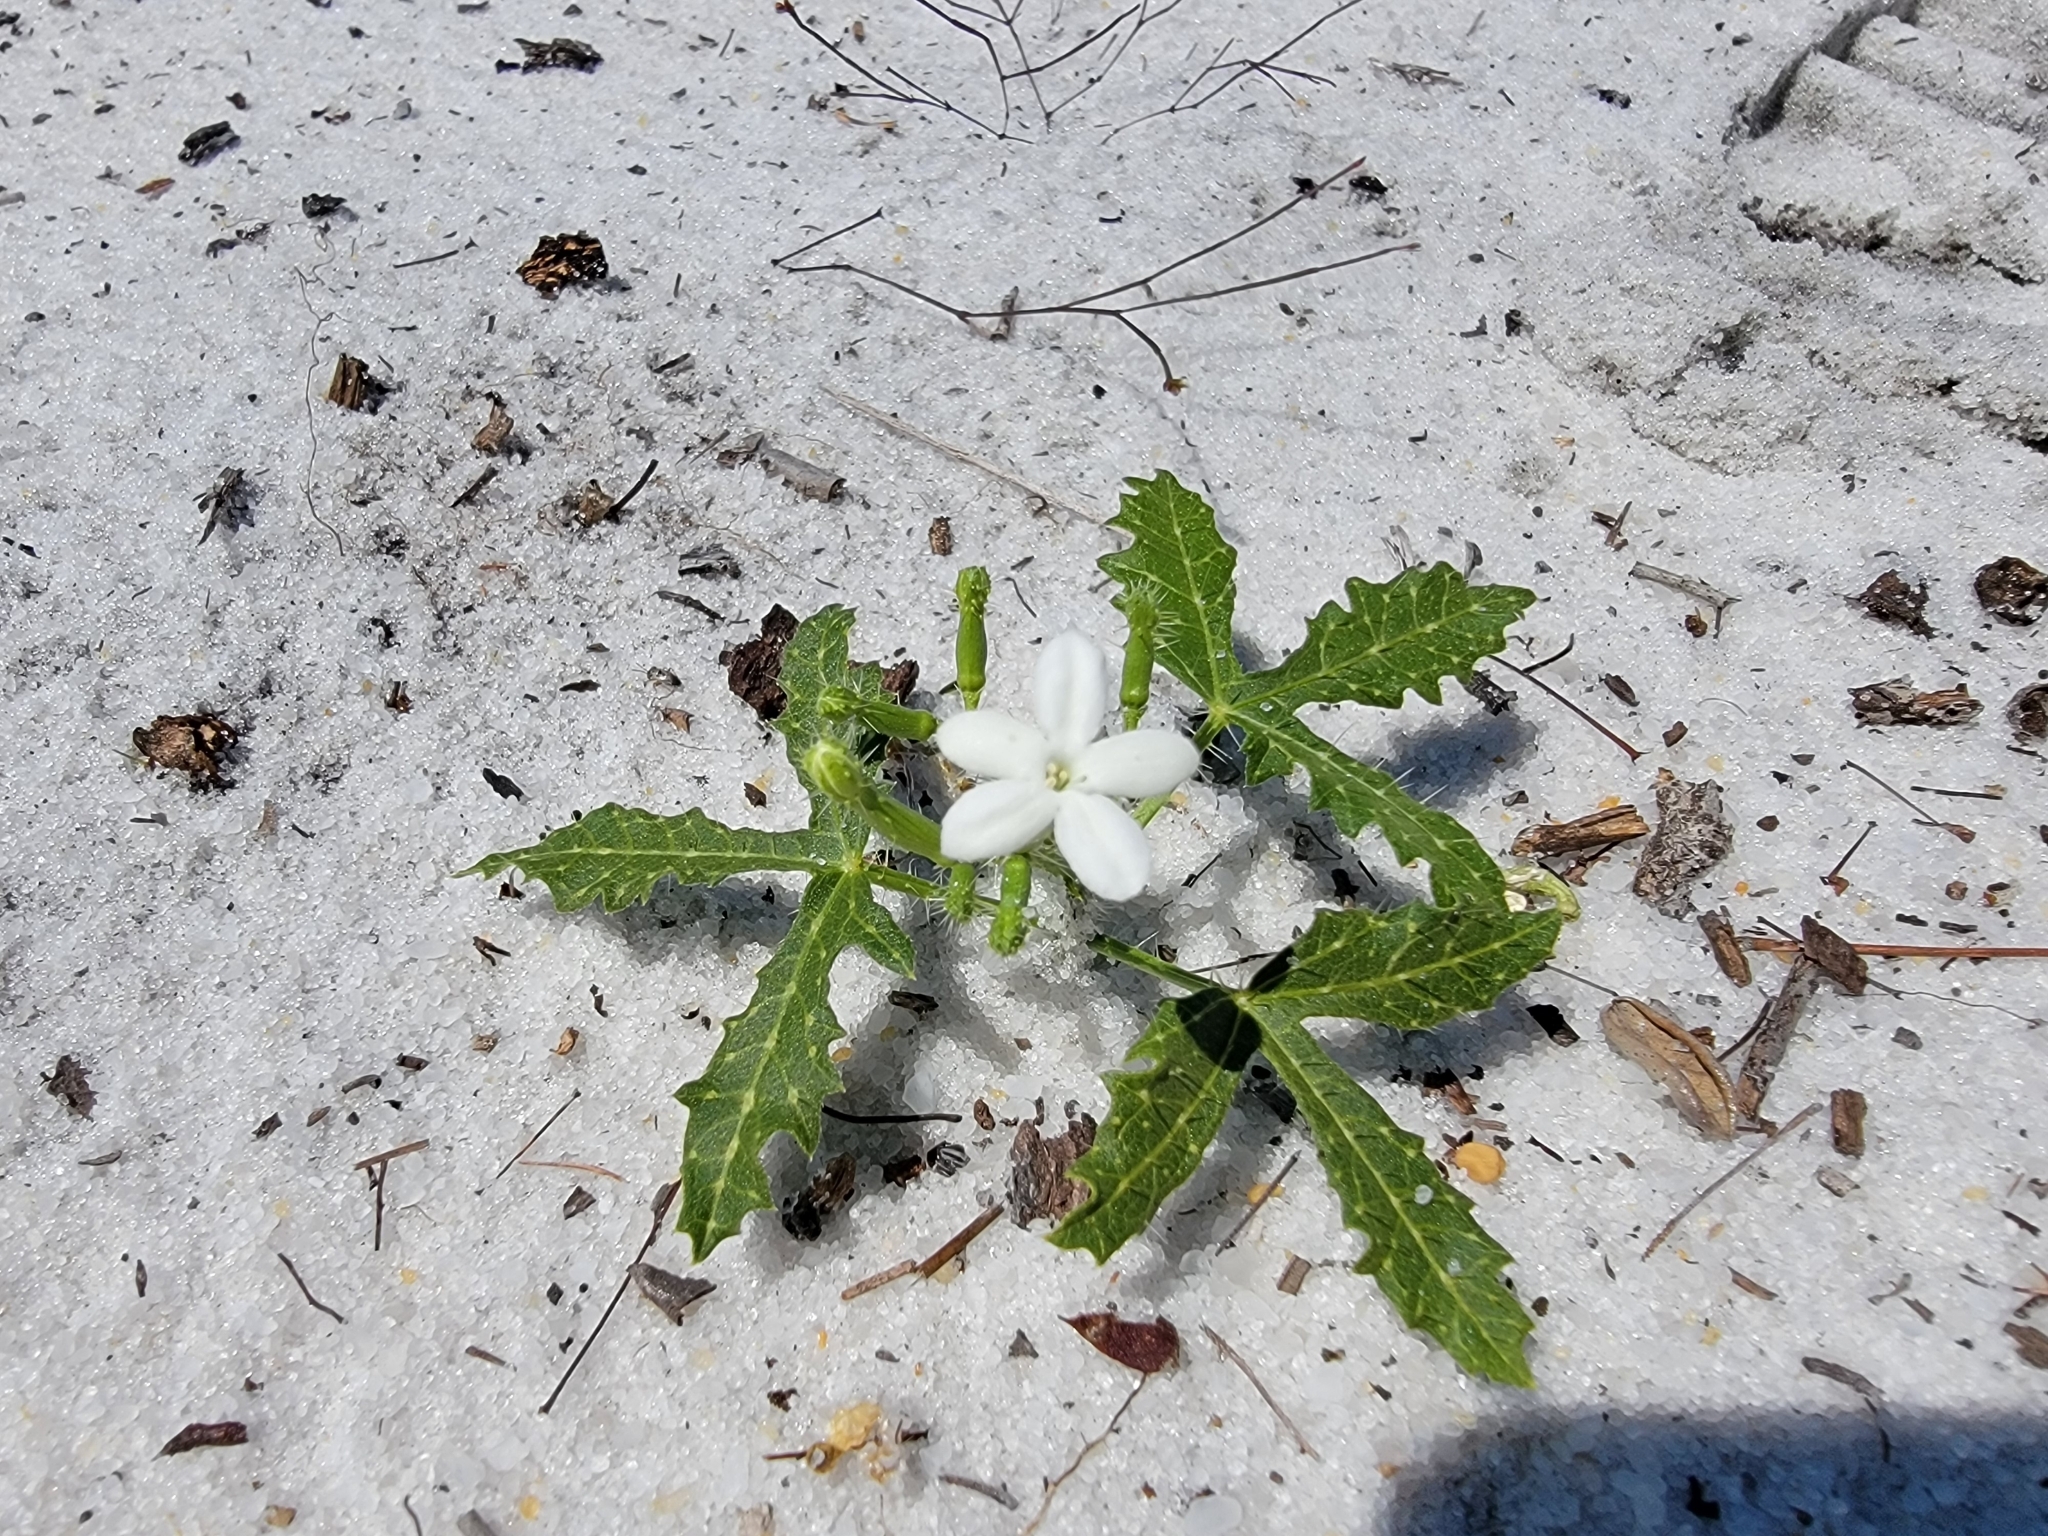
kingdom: Plantae
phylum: Tracheophyta
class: Magnoliopsida
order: Malpighiales
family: Euphorbiaceae
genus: Cnidoscolus
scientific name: Cnidoscolus stimulosus
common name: Bull-nettle
